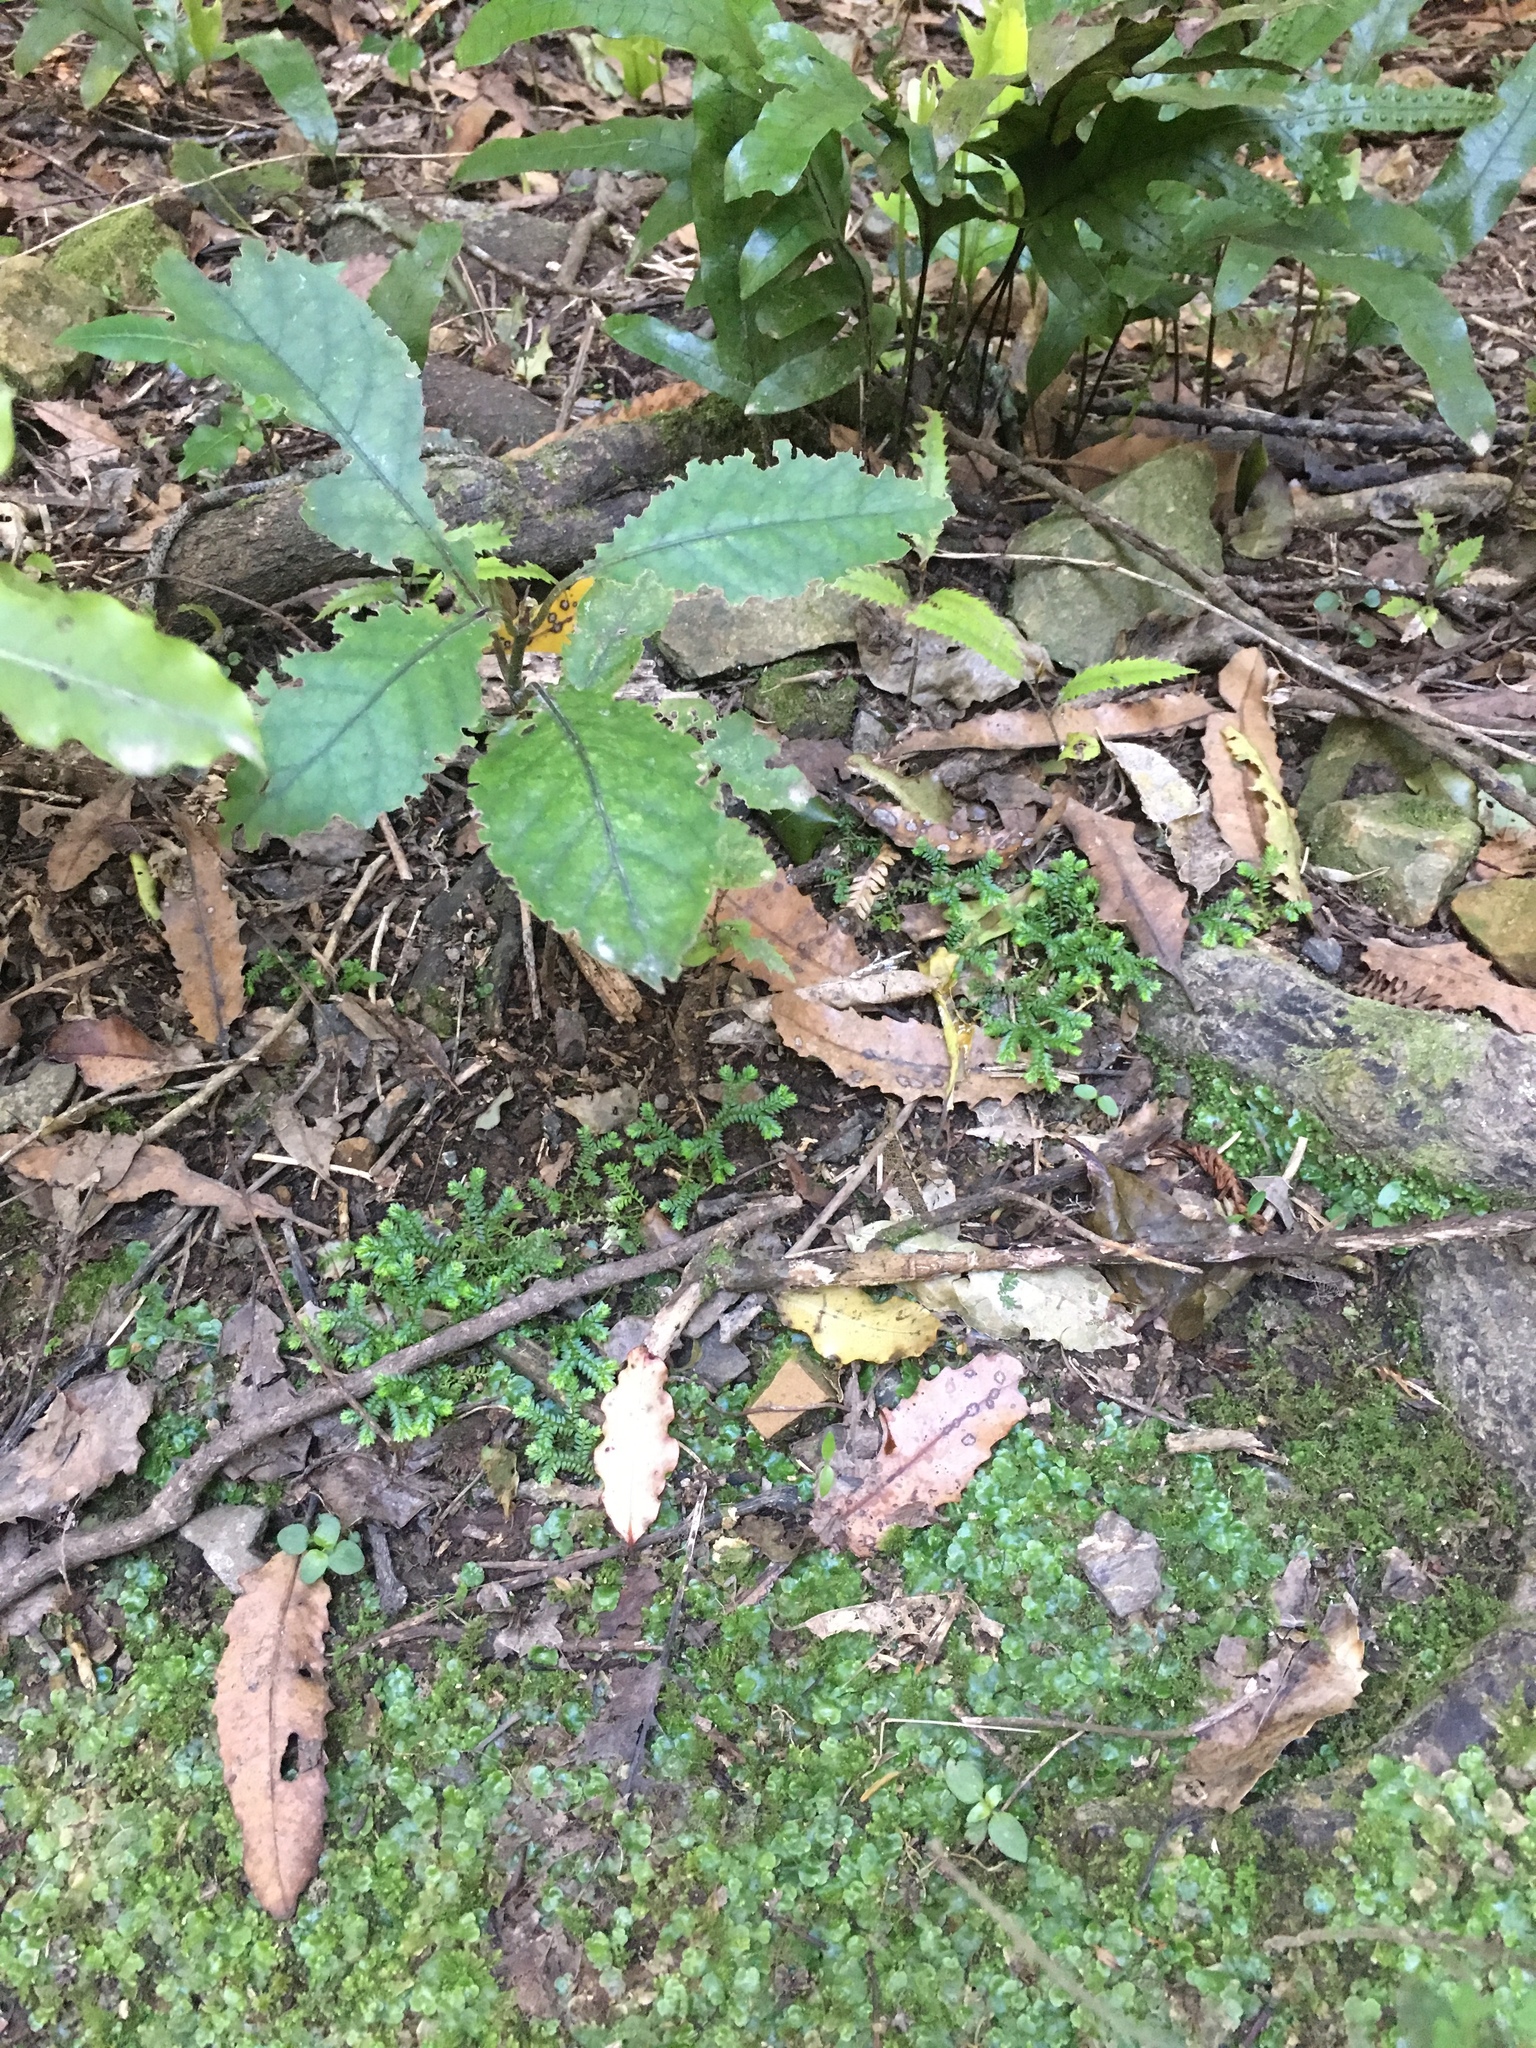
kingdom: Plantae
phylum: Tracheophyta
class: Lycopodiopsida
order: Selaginellales
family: Selaginellaceae
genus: Selaginella
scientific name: Selaginella kraussiana
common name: Krauss' spikemoss
